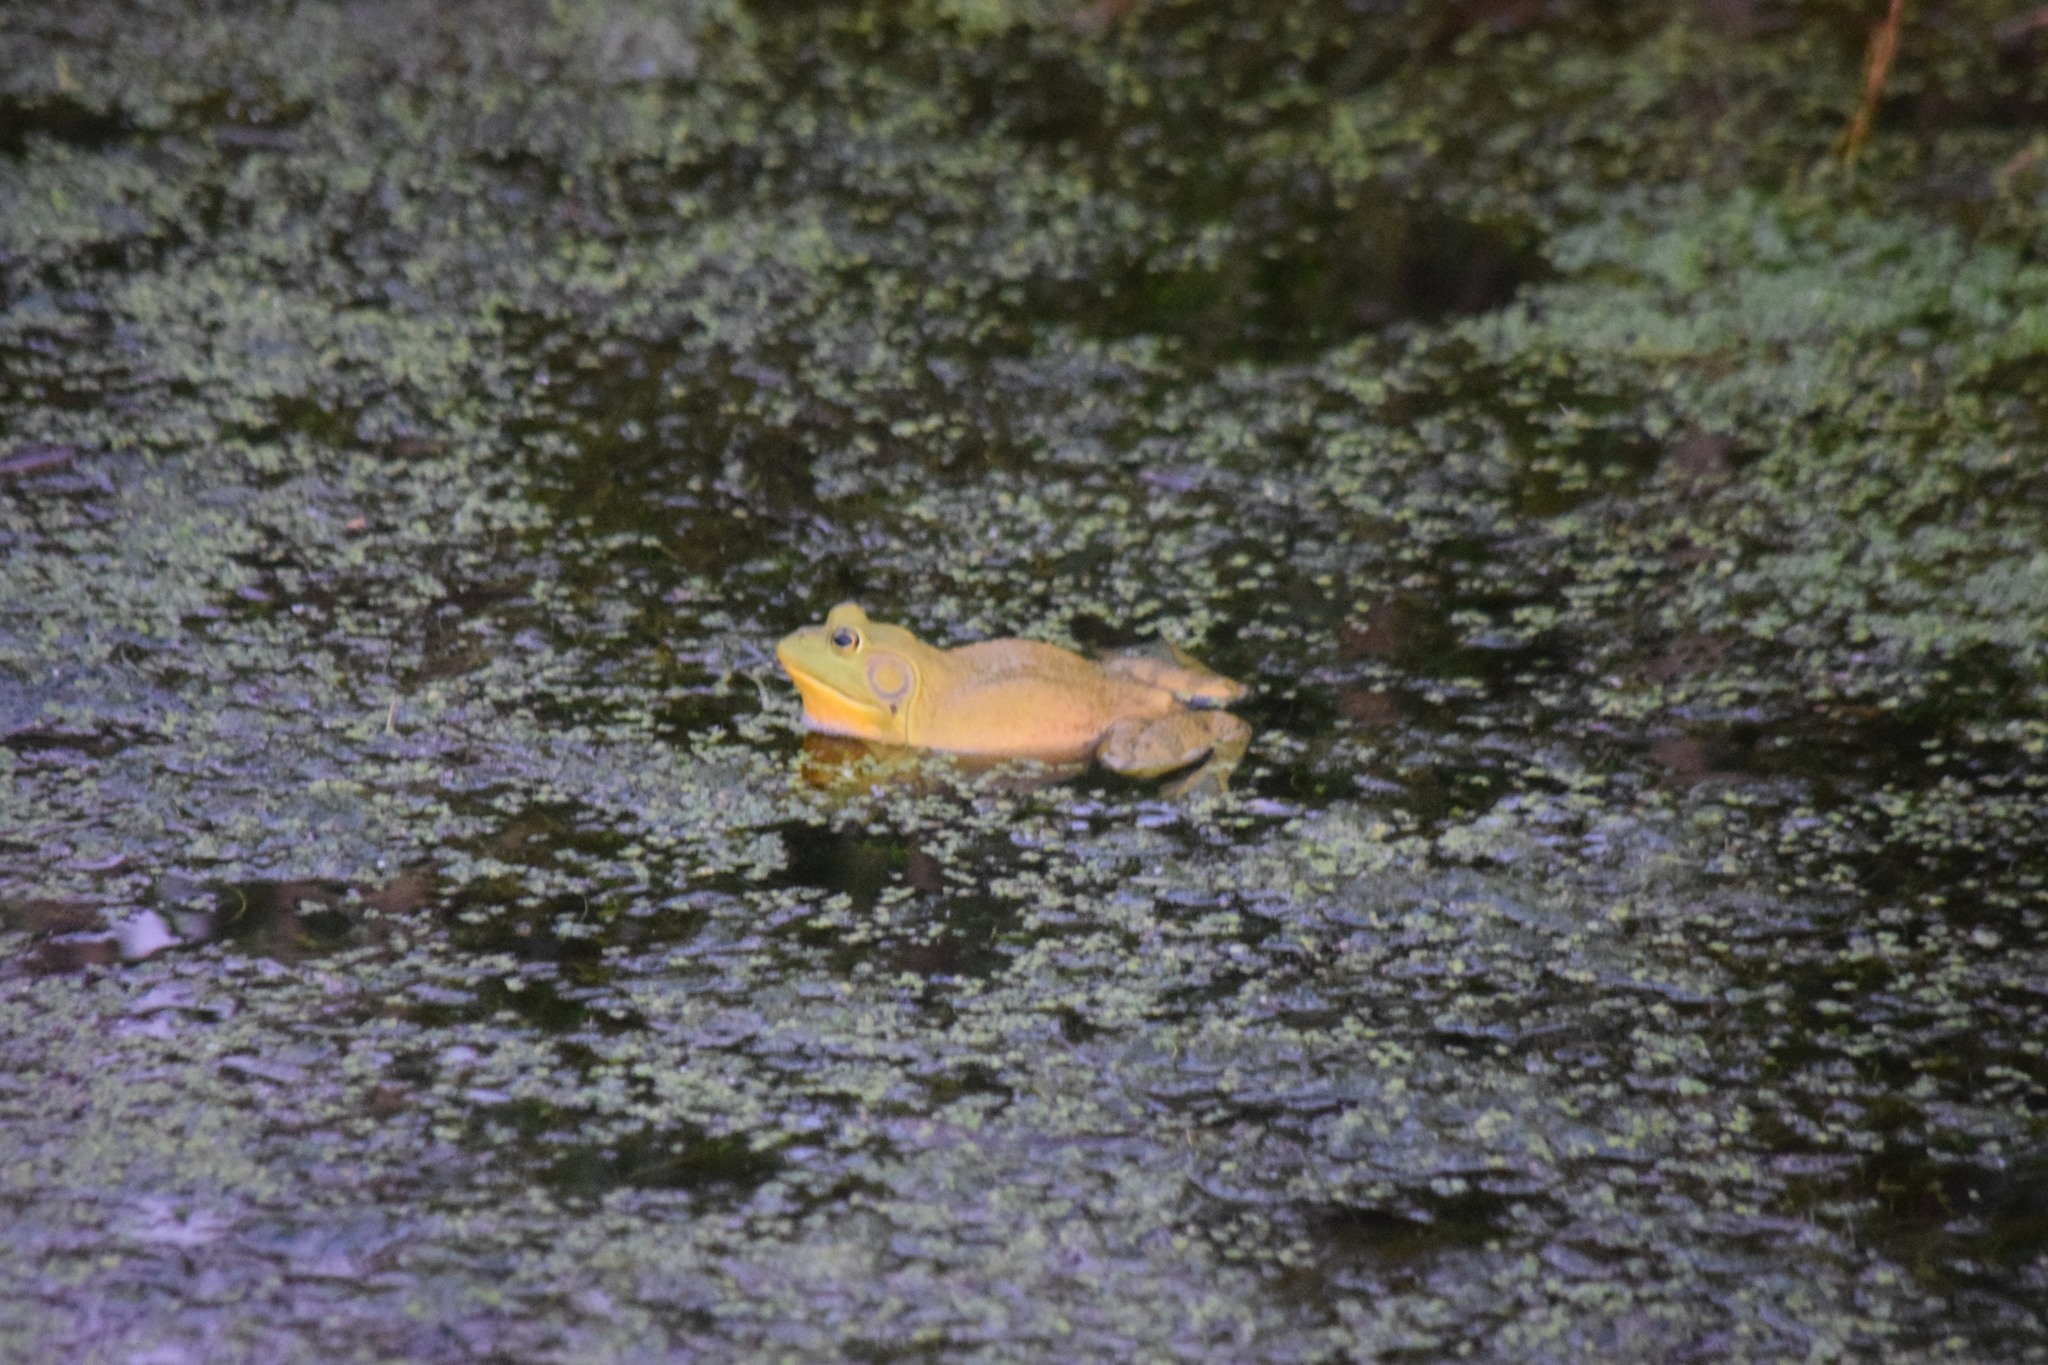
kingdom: Animalia
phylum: Chordata
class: Amphibia
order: Anura
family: Ranidae
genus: Lithobates
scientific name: Lithobates catesbeianus
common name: American bullfrog
